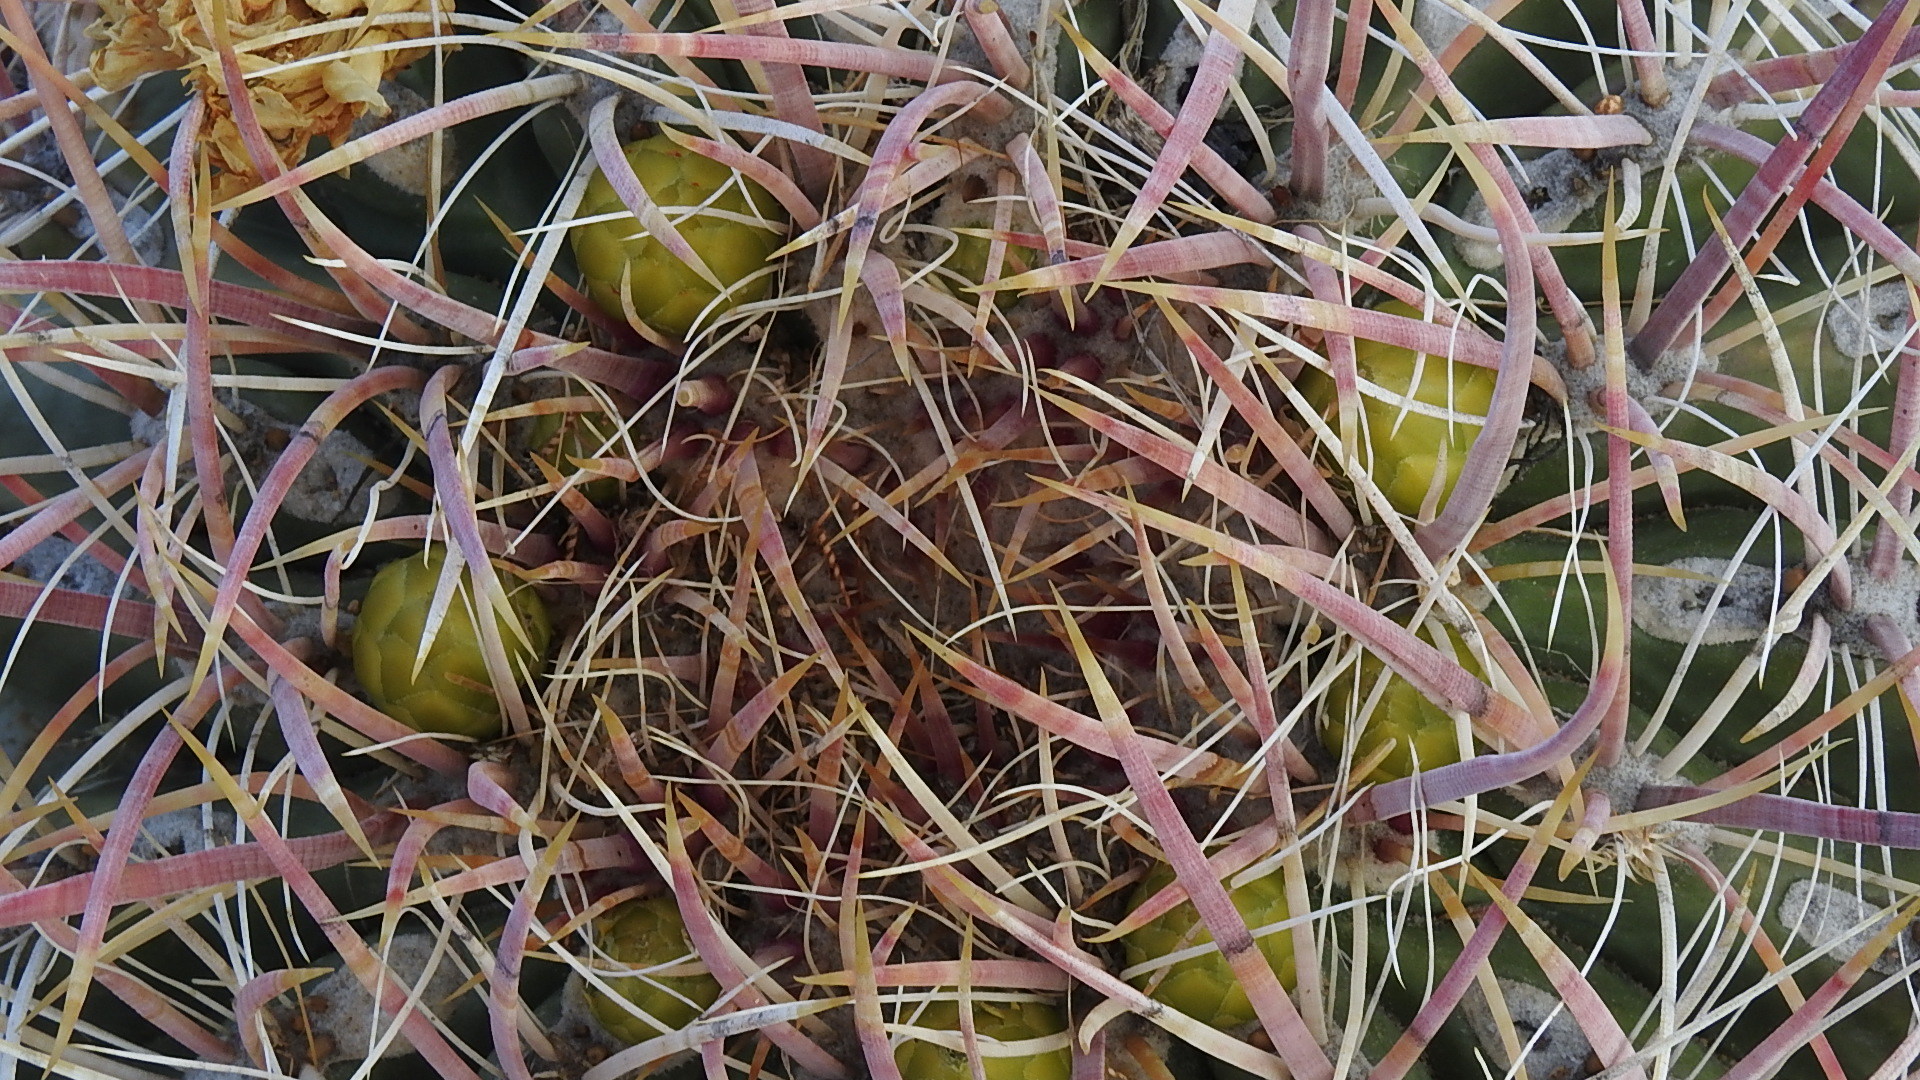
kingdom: Plantae
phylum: Tracheophyta
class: Magnoliopsida
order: Caryophyllales
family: Cactaceae
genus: Ferocactus
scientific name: Ferocactus cylindraceus
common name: California barrel cactus
